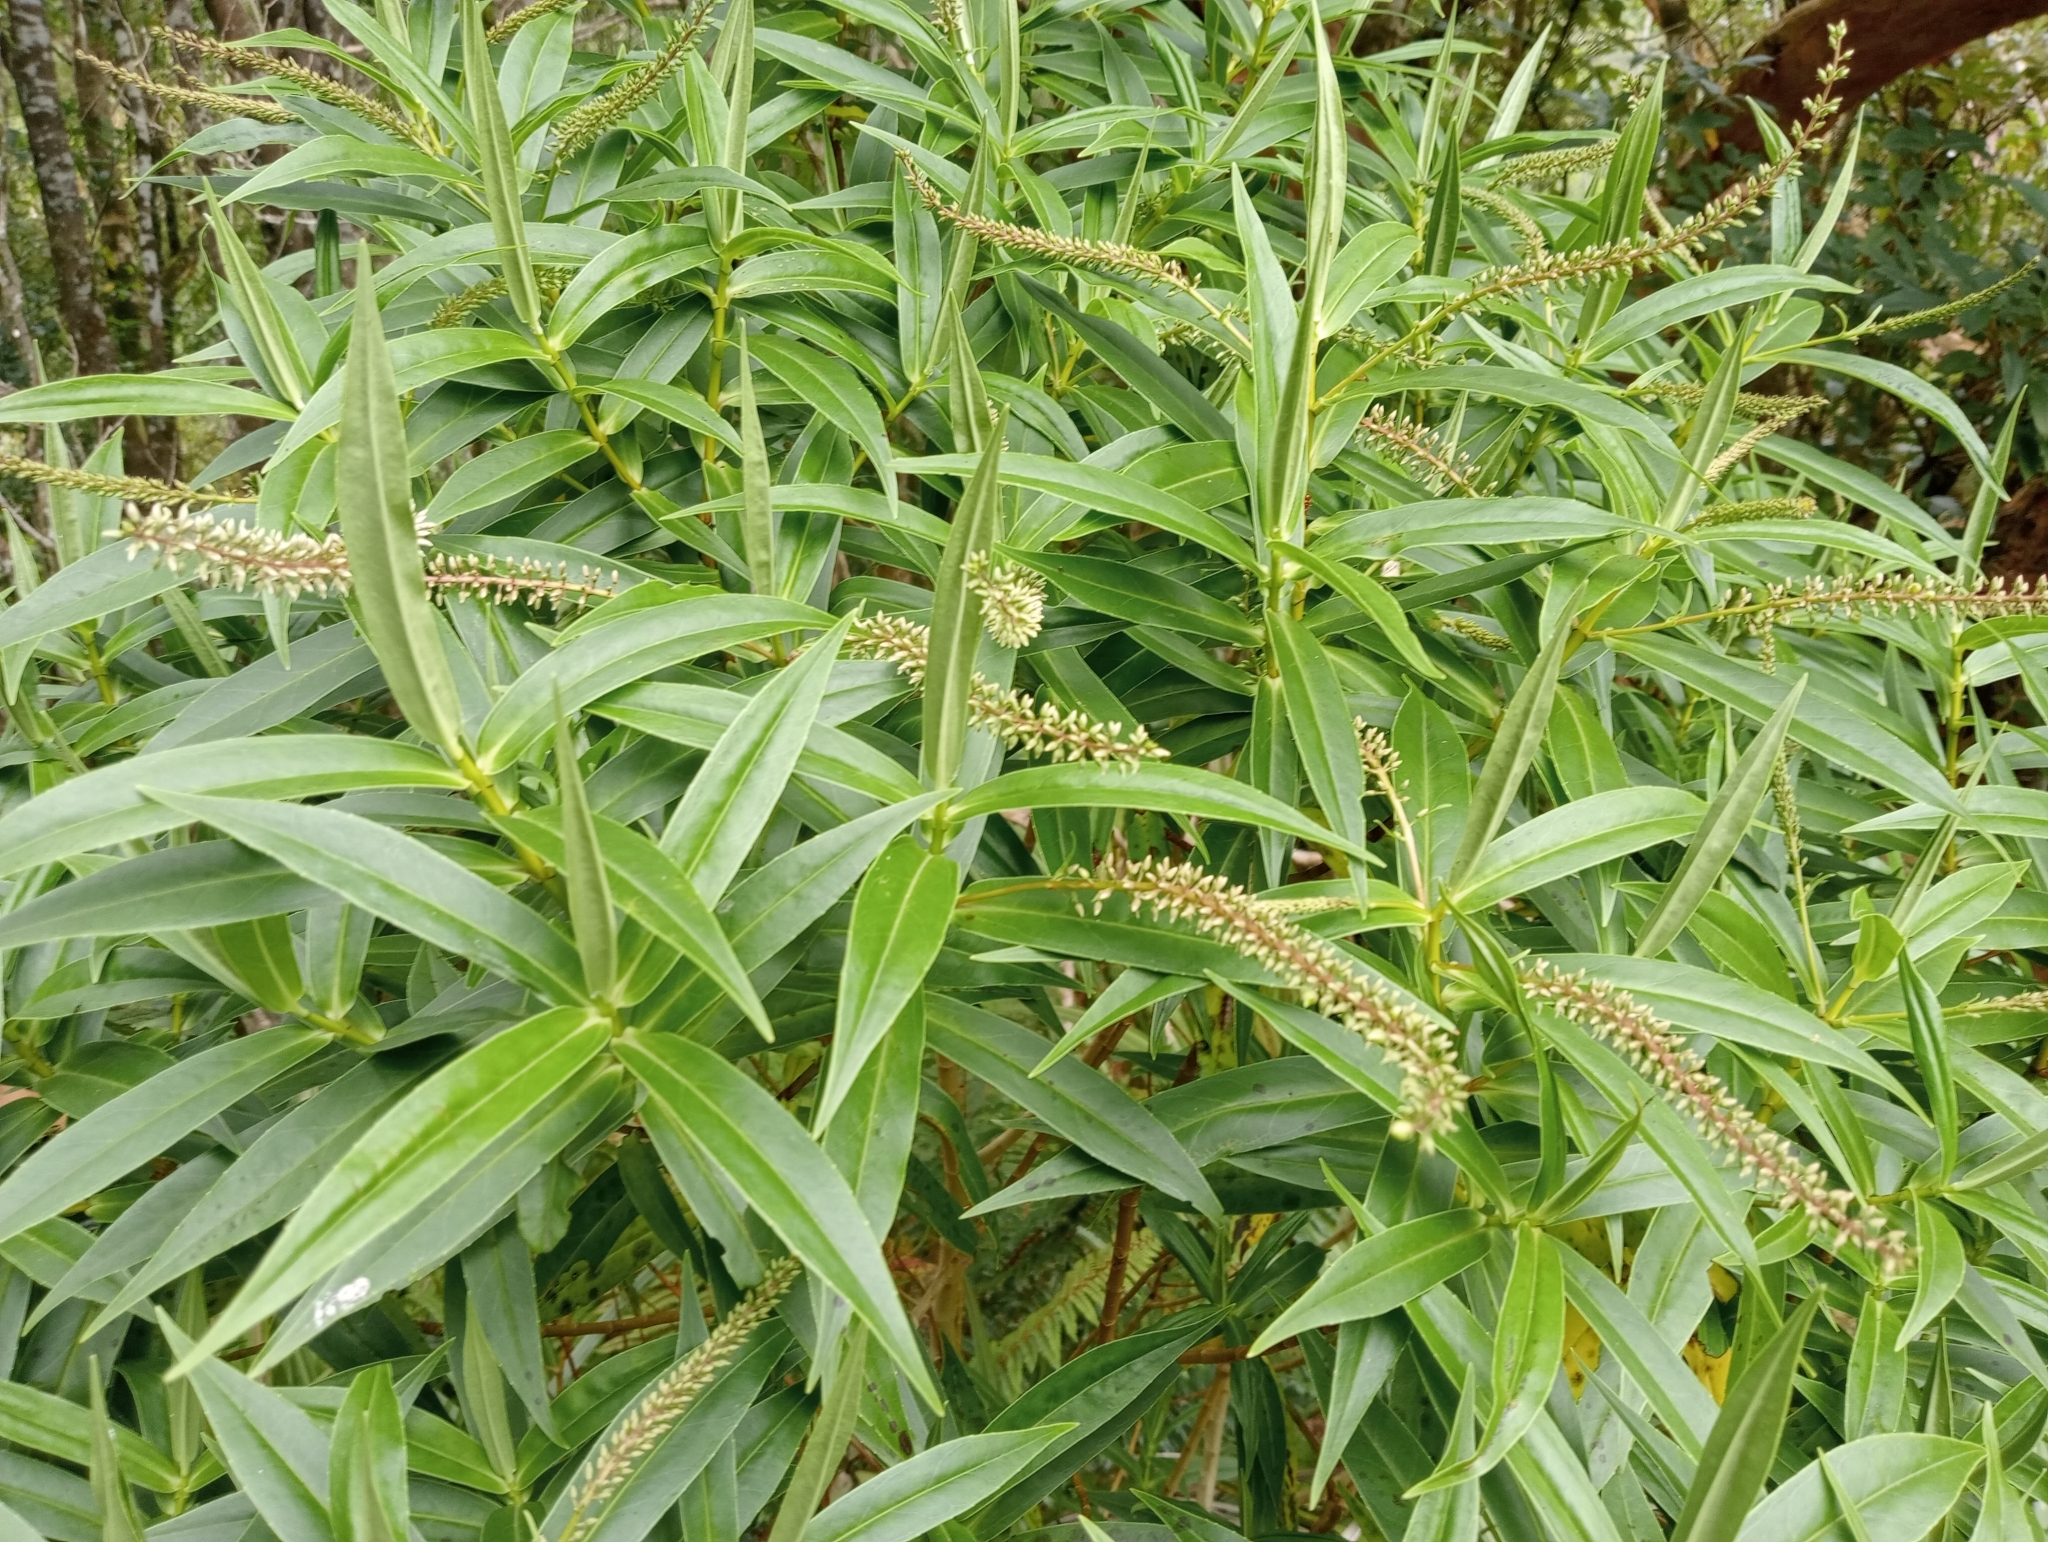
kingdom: Plantae
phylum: Tracheophyta
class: Magnoliopsida
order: Lamiales
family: Plantaginaceae
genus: Veronica
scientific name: Veronica salicifolia
